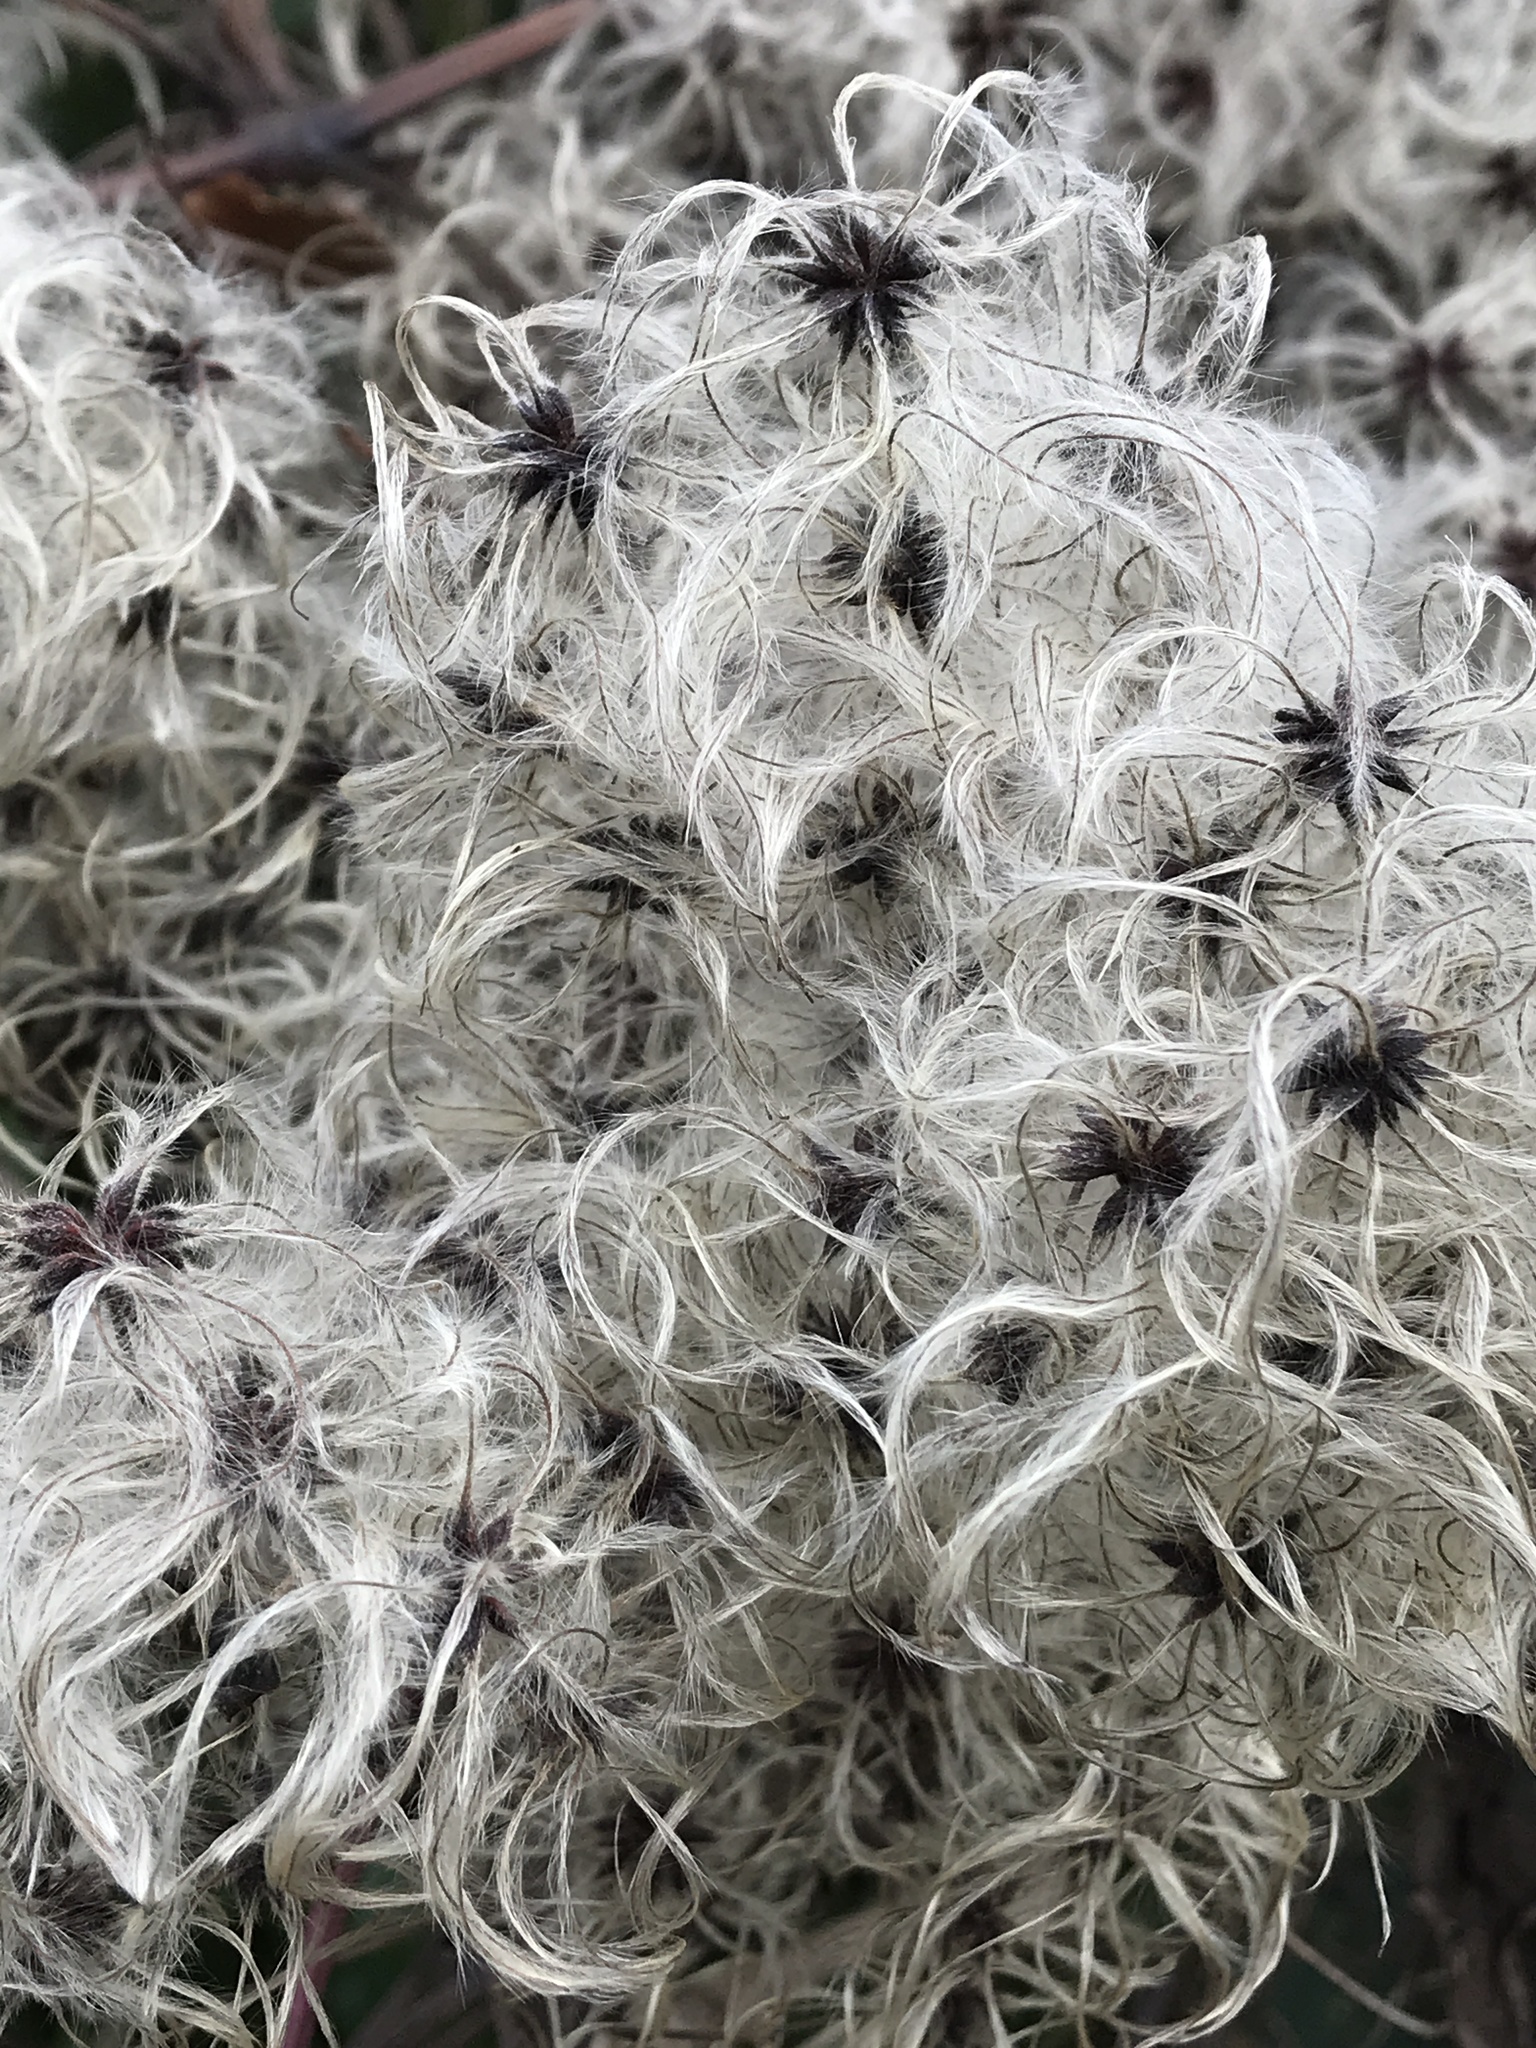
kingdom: Plantae
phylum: Tracheophyta
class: Magnoliopsida
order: Ranunculales
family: Ranunculaceae
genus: Clematis
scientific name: Clematis vitalba
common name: Evergreen clematis
